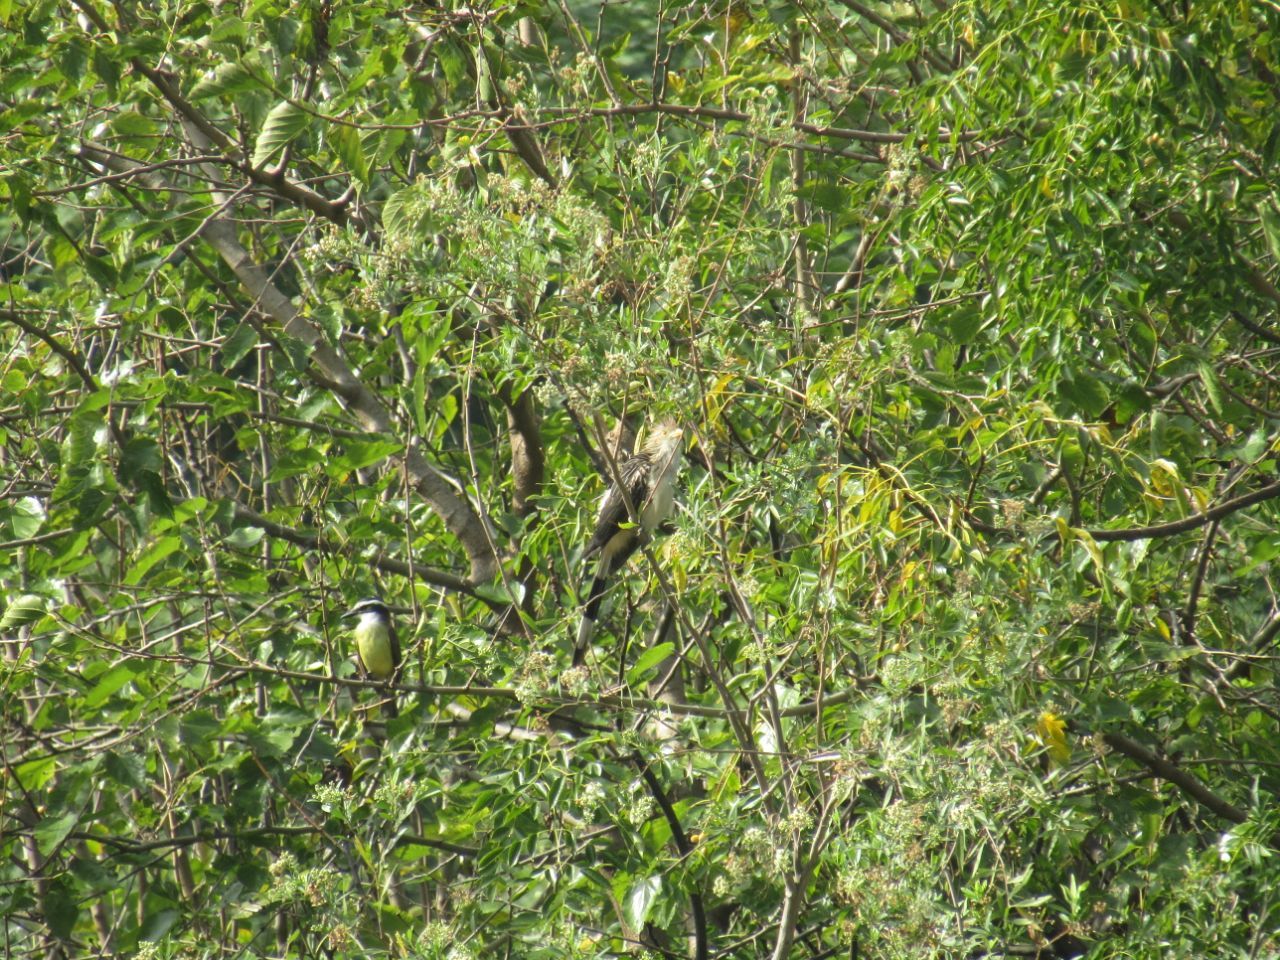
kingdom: Animalia
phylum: Chordata
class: Aves
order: Cuculiformes
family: Cuculidae
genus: Guira
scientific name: Guira guira
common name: Guira cuckoo
